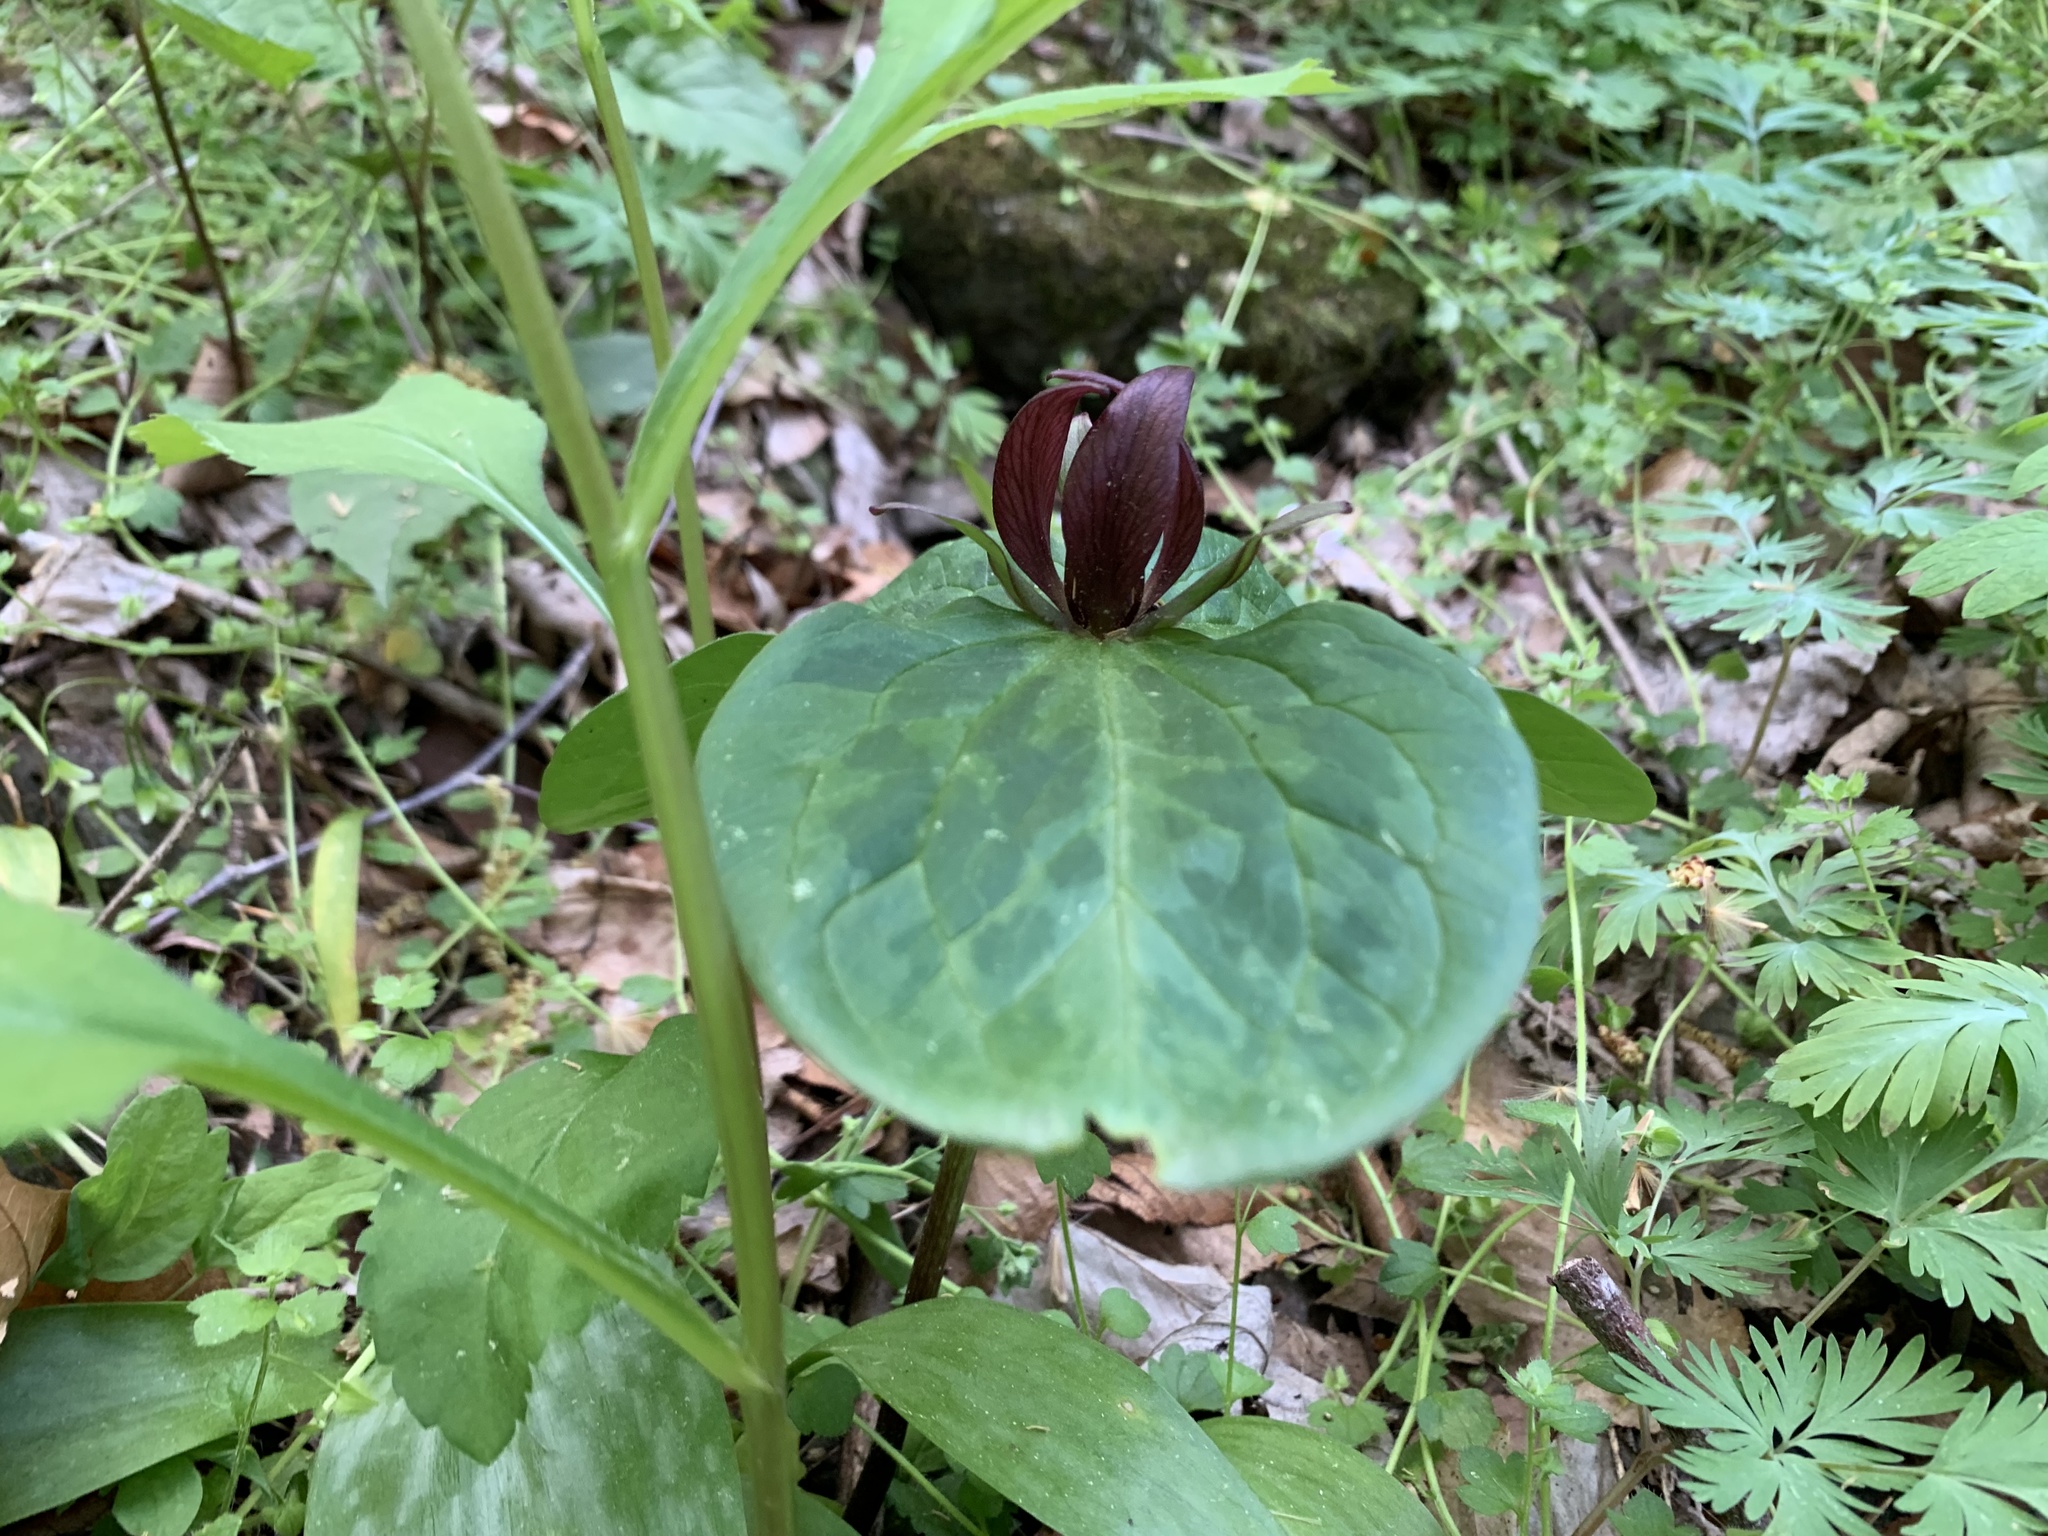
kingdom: Plantae
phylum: Tracheophyta
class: Liliopsida
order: Liliales
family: Melanthiaceae
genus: Trillium
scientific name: Trillium sessile
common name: Sessile trillium
